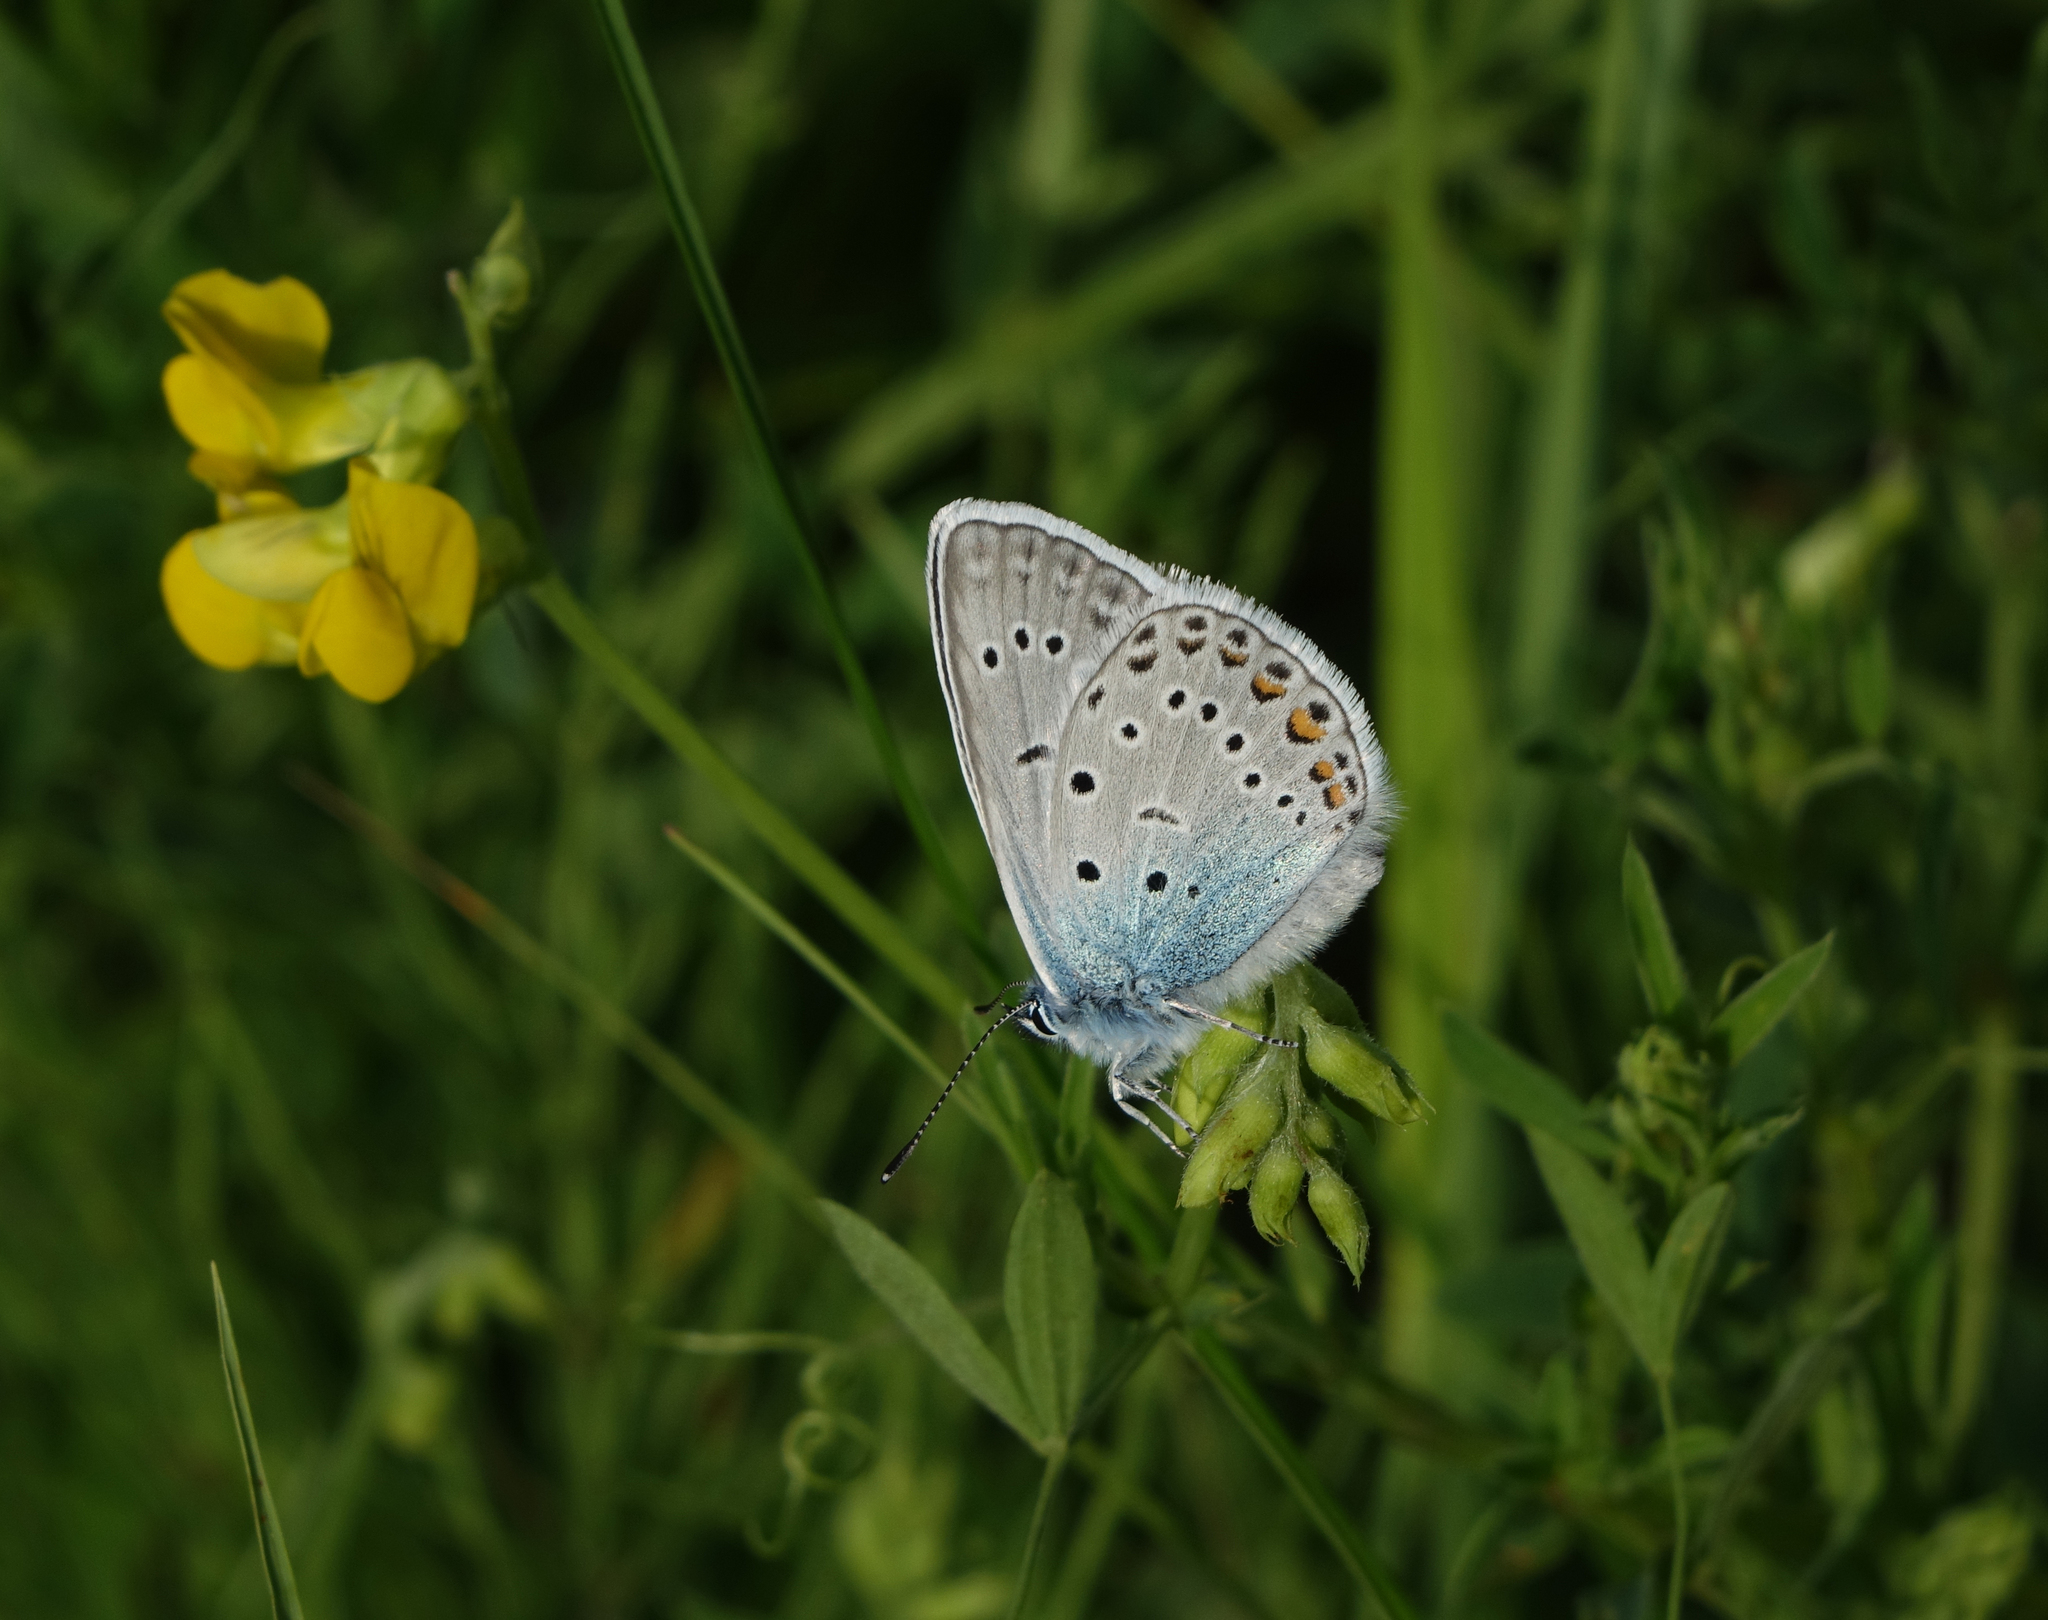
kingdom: Animalia
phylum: Arthropoda
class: Insecta
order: Lepidoptera
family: Lycaenidae
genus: Plebejus
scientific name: Plebejus amanda
